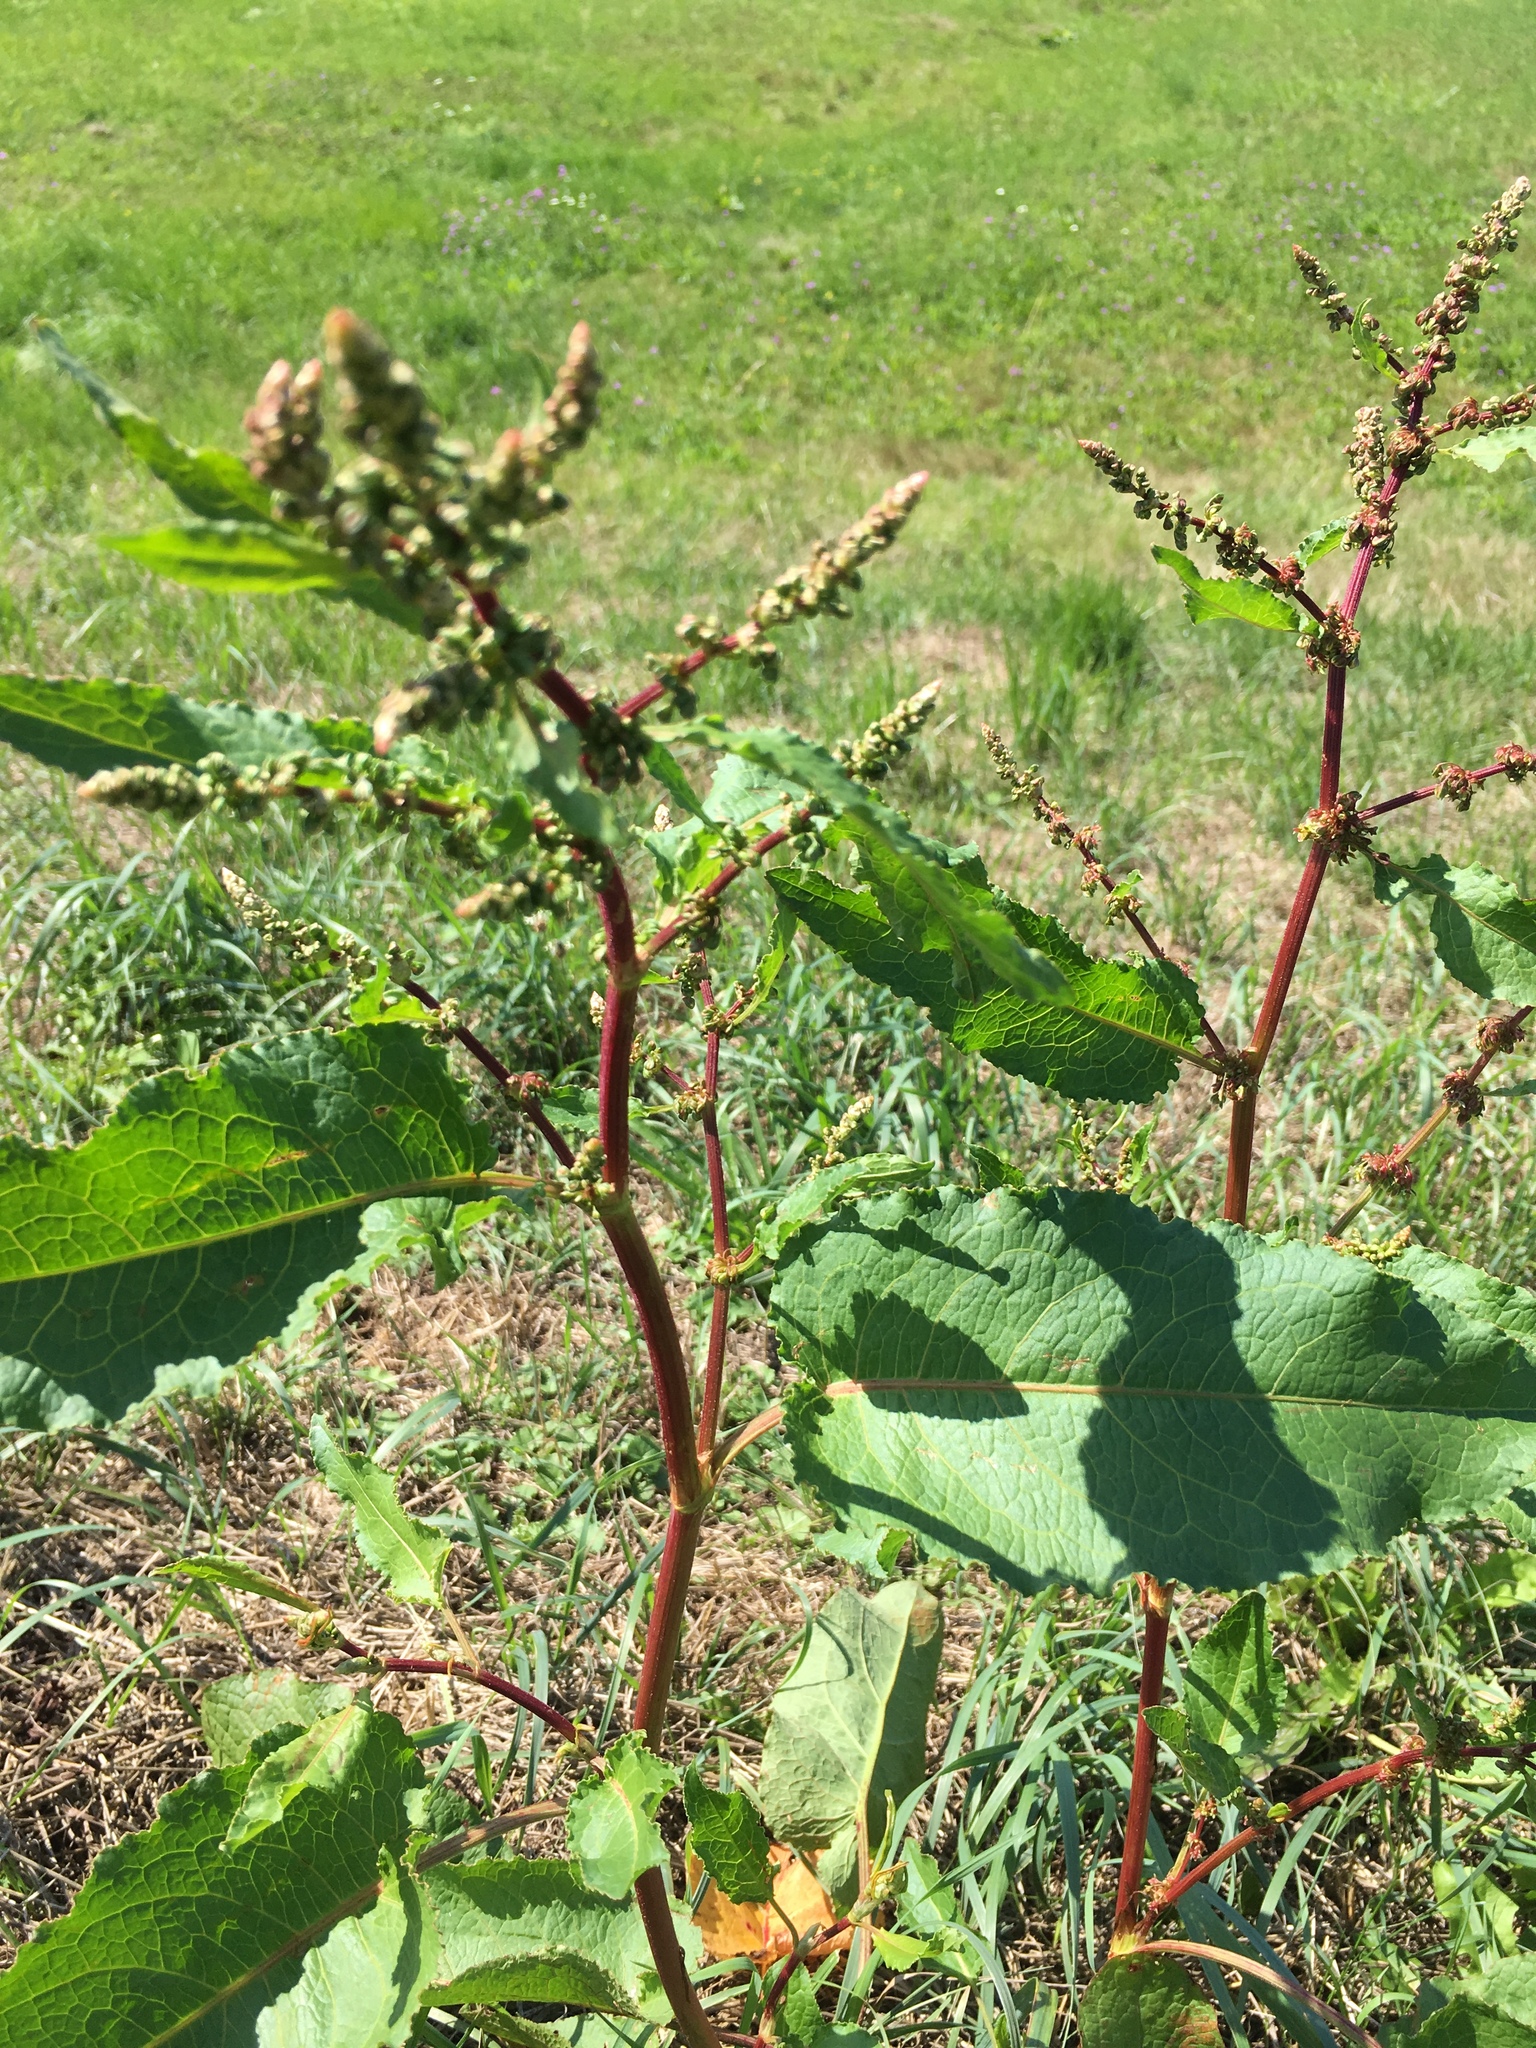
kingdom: Plantae
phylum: Tracheophyta
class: Magnoliopsida
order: Caryophyllales
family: Polygonaceae
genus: Rumex
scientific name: Rumex obtusifolius
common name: Bitter dock
